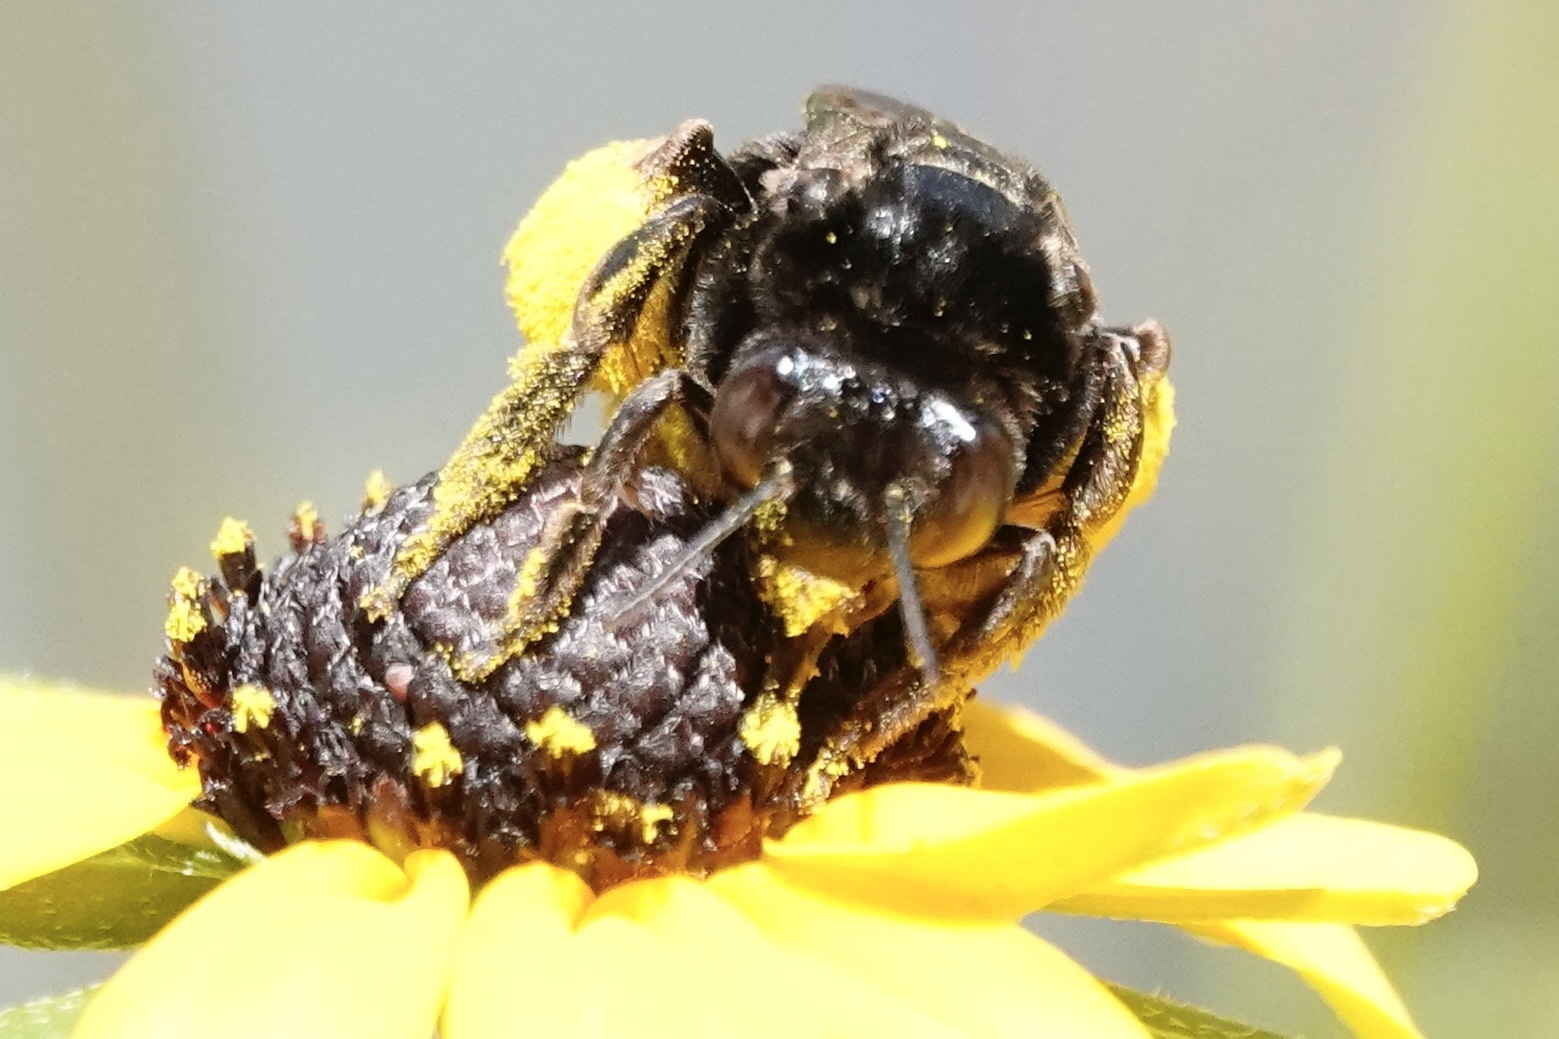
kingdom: Animalia
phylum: Arthropoda
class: Insecta
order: Hymenoptera
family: Apidae
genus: Svastra
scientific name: Svastra obliqua
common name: Oblique longhorn
